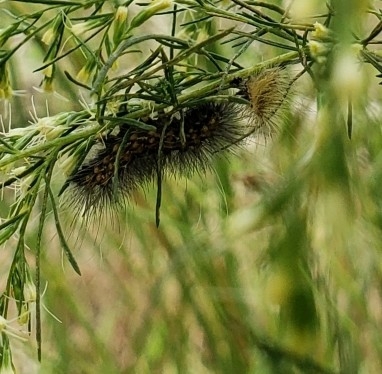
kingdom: Animalia
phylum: Arthropoda
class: Insecta
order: Lepidoptera
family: Erebidae
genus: Estigmene
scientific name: Estigmene acrea
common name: Salt marsh moth
